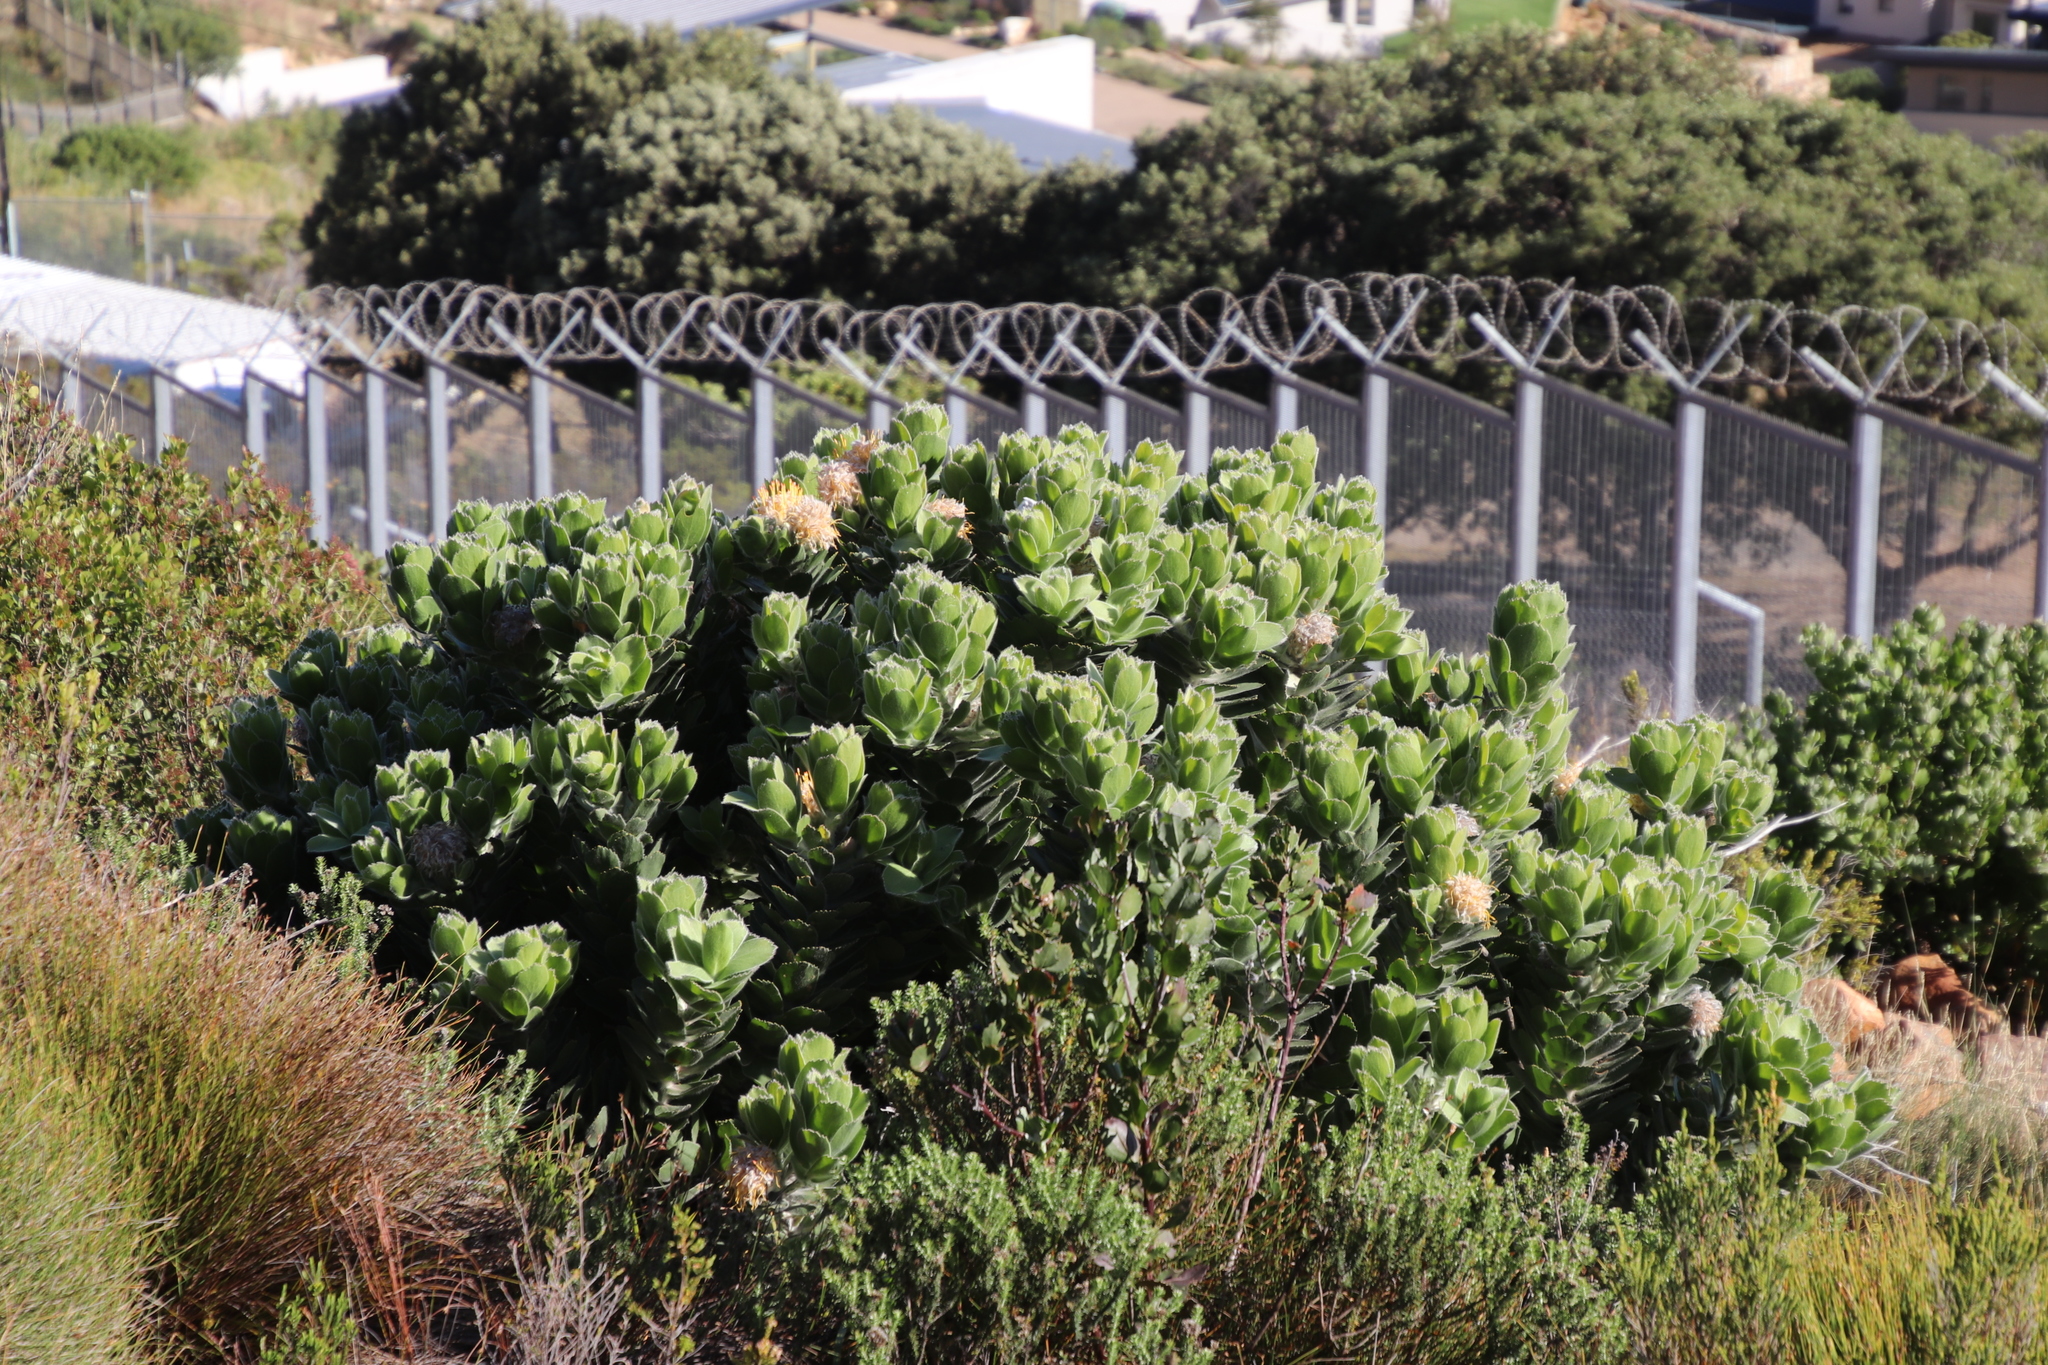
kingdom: Plantae
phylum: Tracheophyta
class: Magnoliopsida
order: Proteales
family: Proteaceae
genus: Leucospermum
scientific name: Leucospermum conocarpodendron
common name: Tree pincushion
